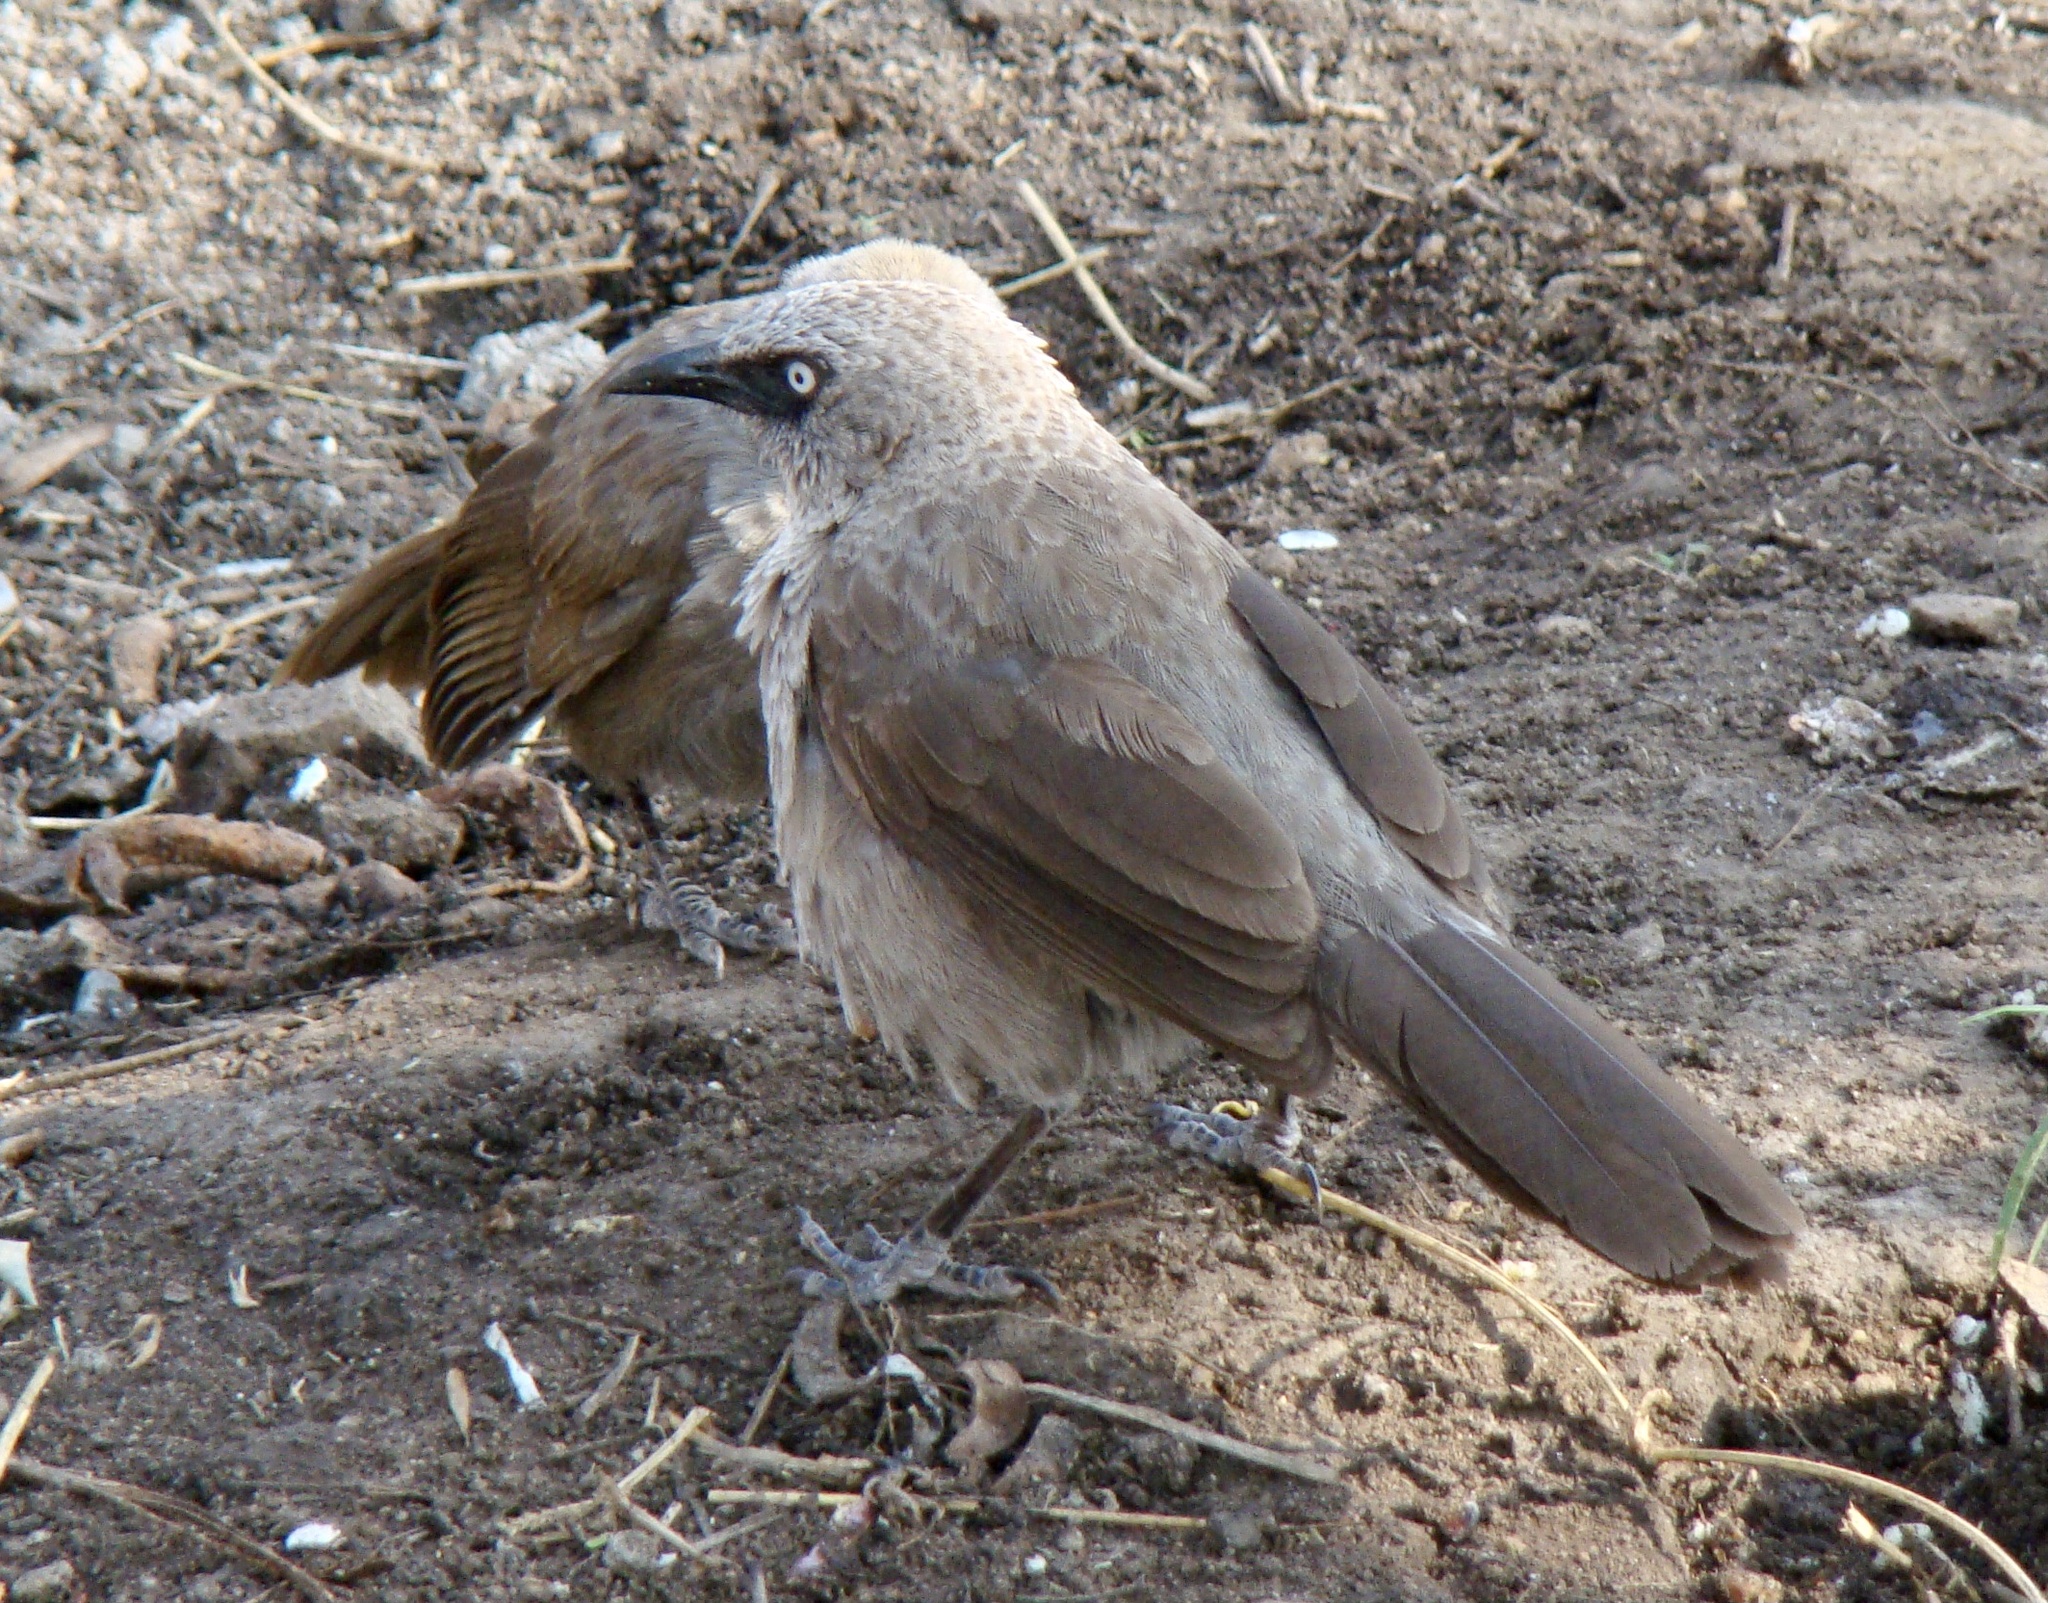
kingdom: Animalia
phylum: Chordata
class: Aves
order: Passeriformes
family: Leiothrichidae
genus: Turdoides
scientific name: Turdoides sharpei
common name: Black-lored babbler
